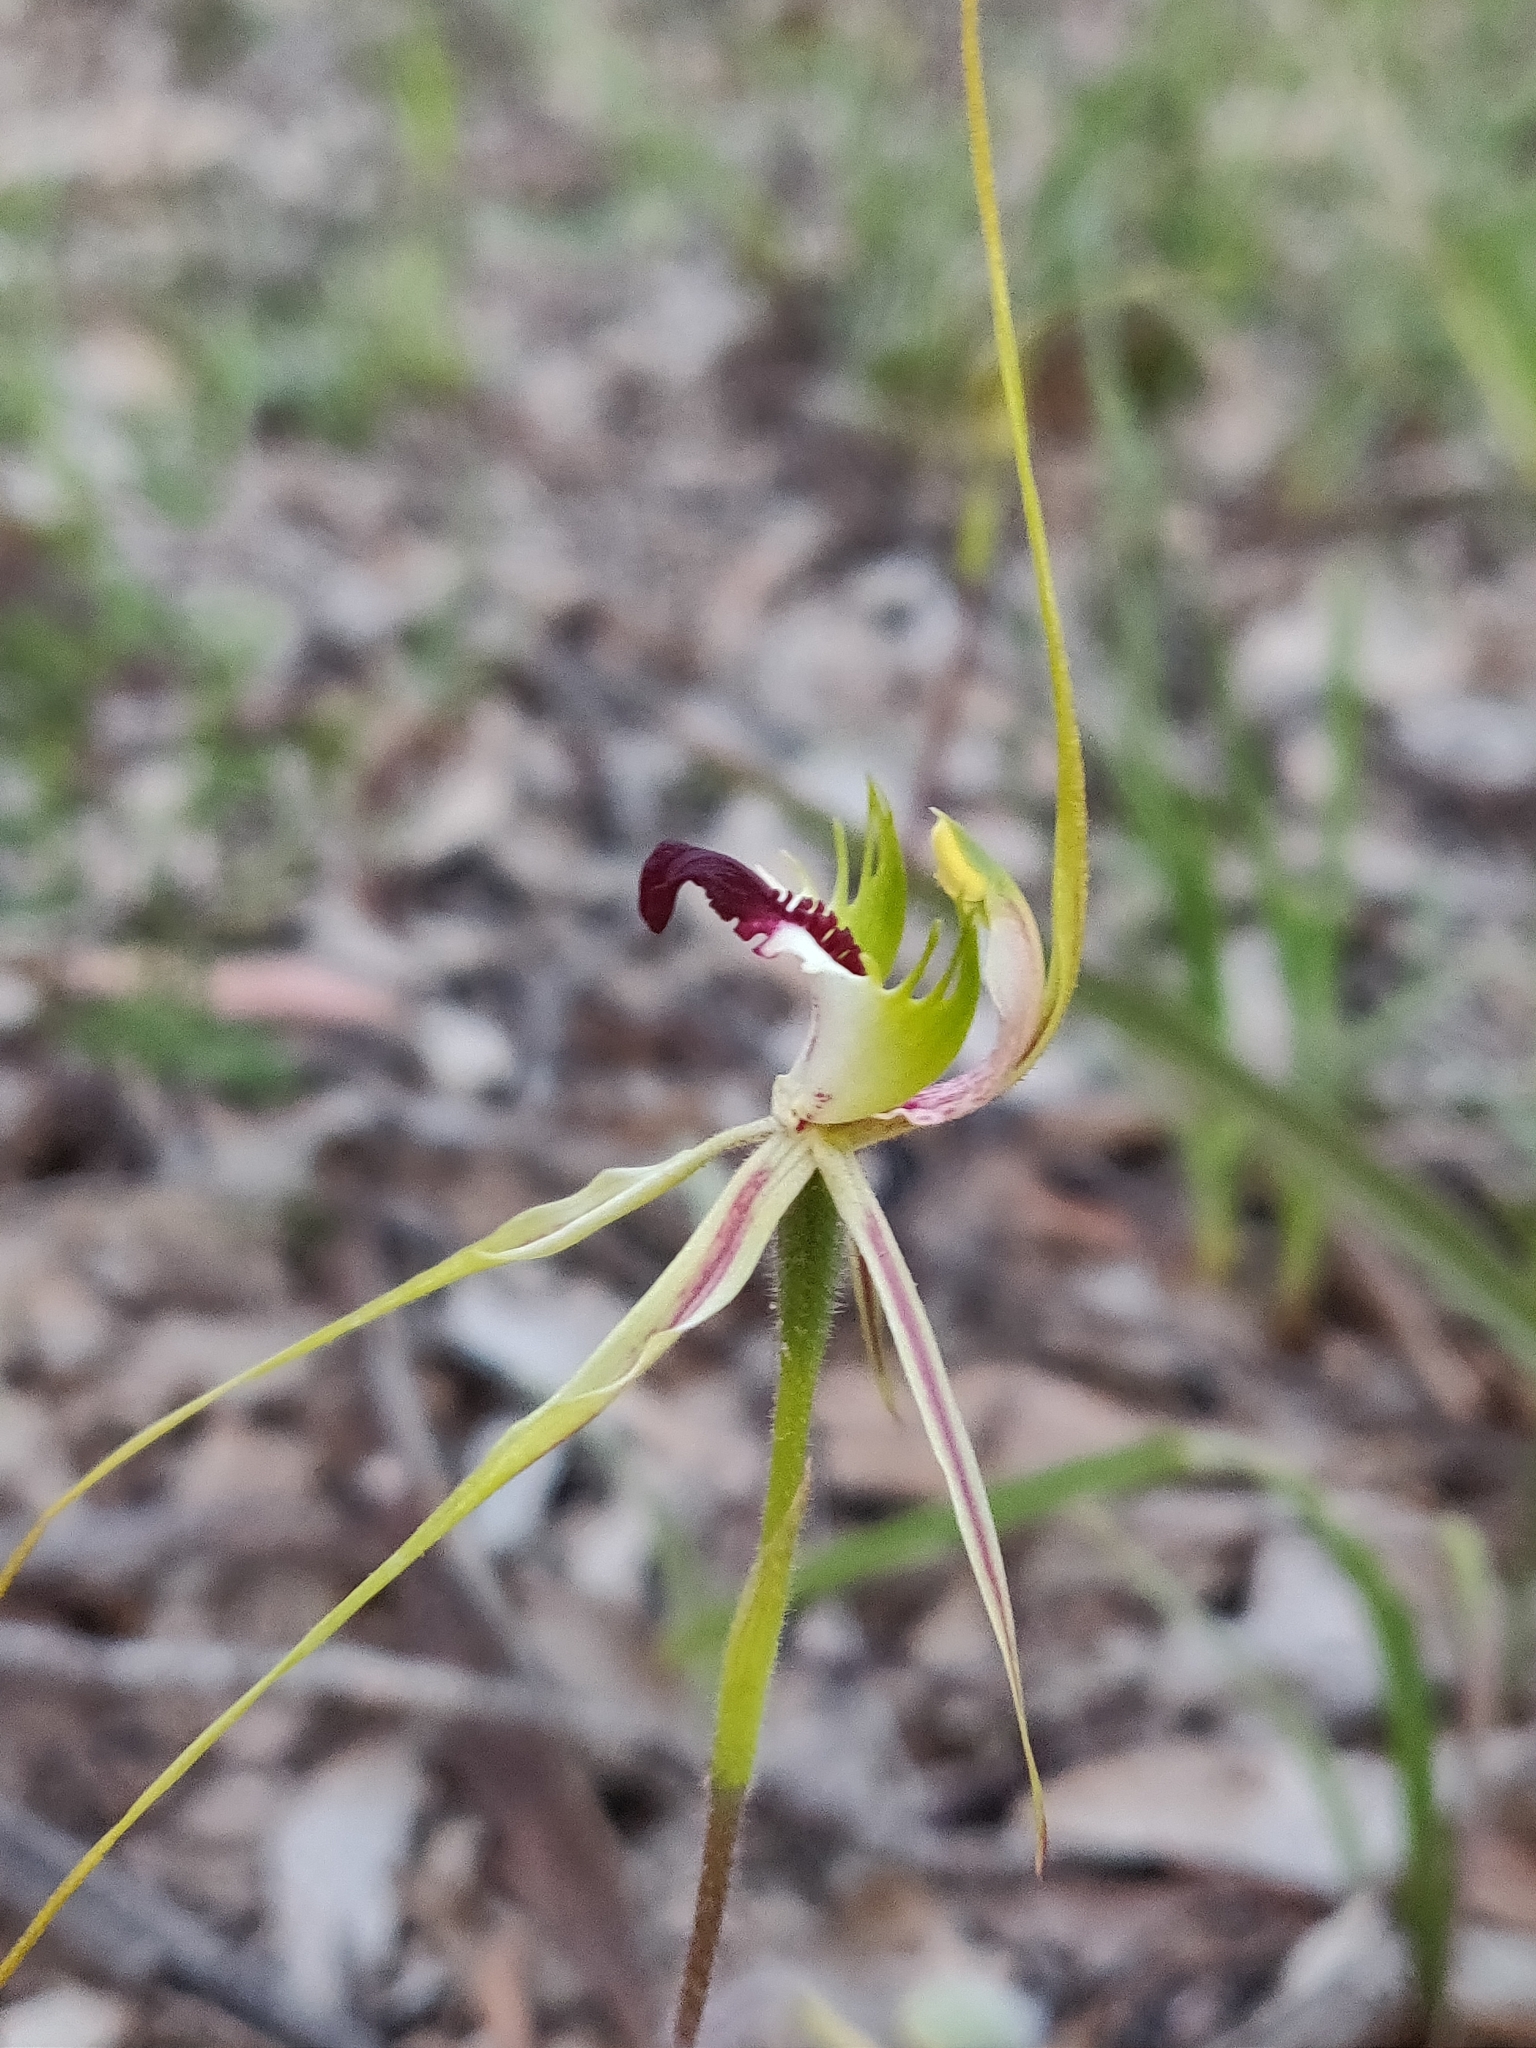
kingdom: Plantae
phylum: Tracheophyta
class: Liliopsida
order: Asparagales
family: Orchidaceae
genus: Caladenia
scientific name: Caladenia atrovespa
